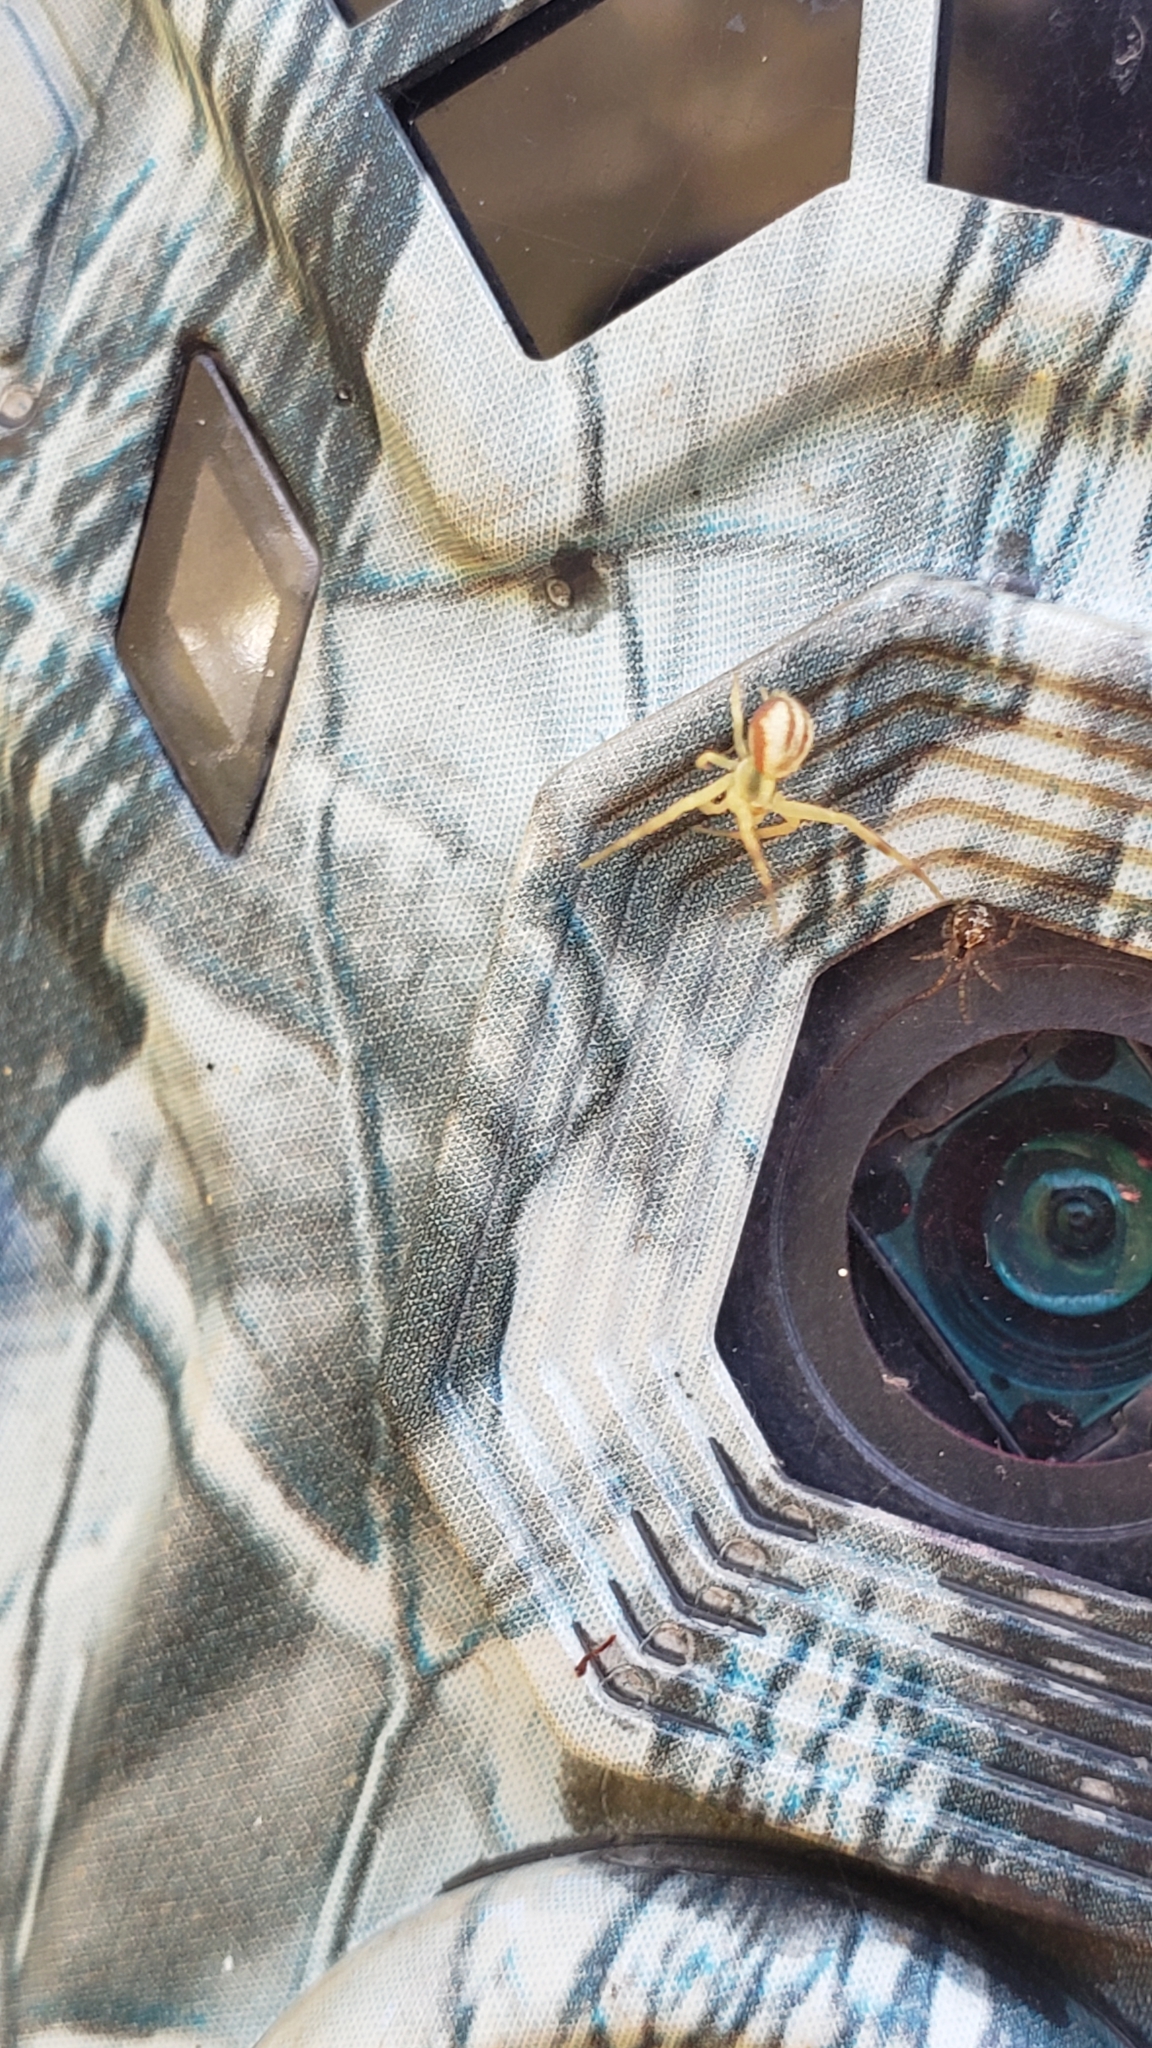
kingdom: Animalia
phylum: Arthropoda
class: Arachnida
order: Araneae
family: Thomisidae
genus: Misumena
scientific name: Misumena vatia
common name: Goldenrod crab spider
